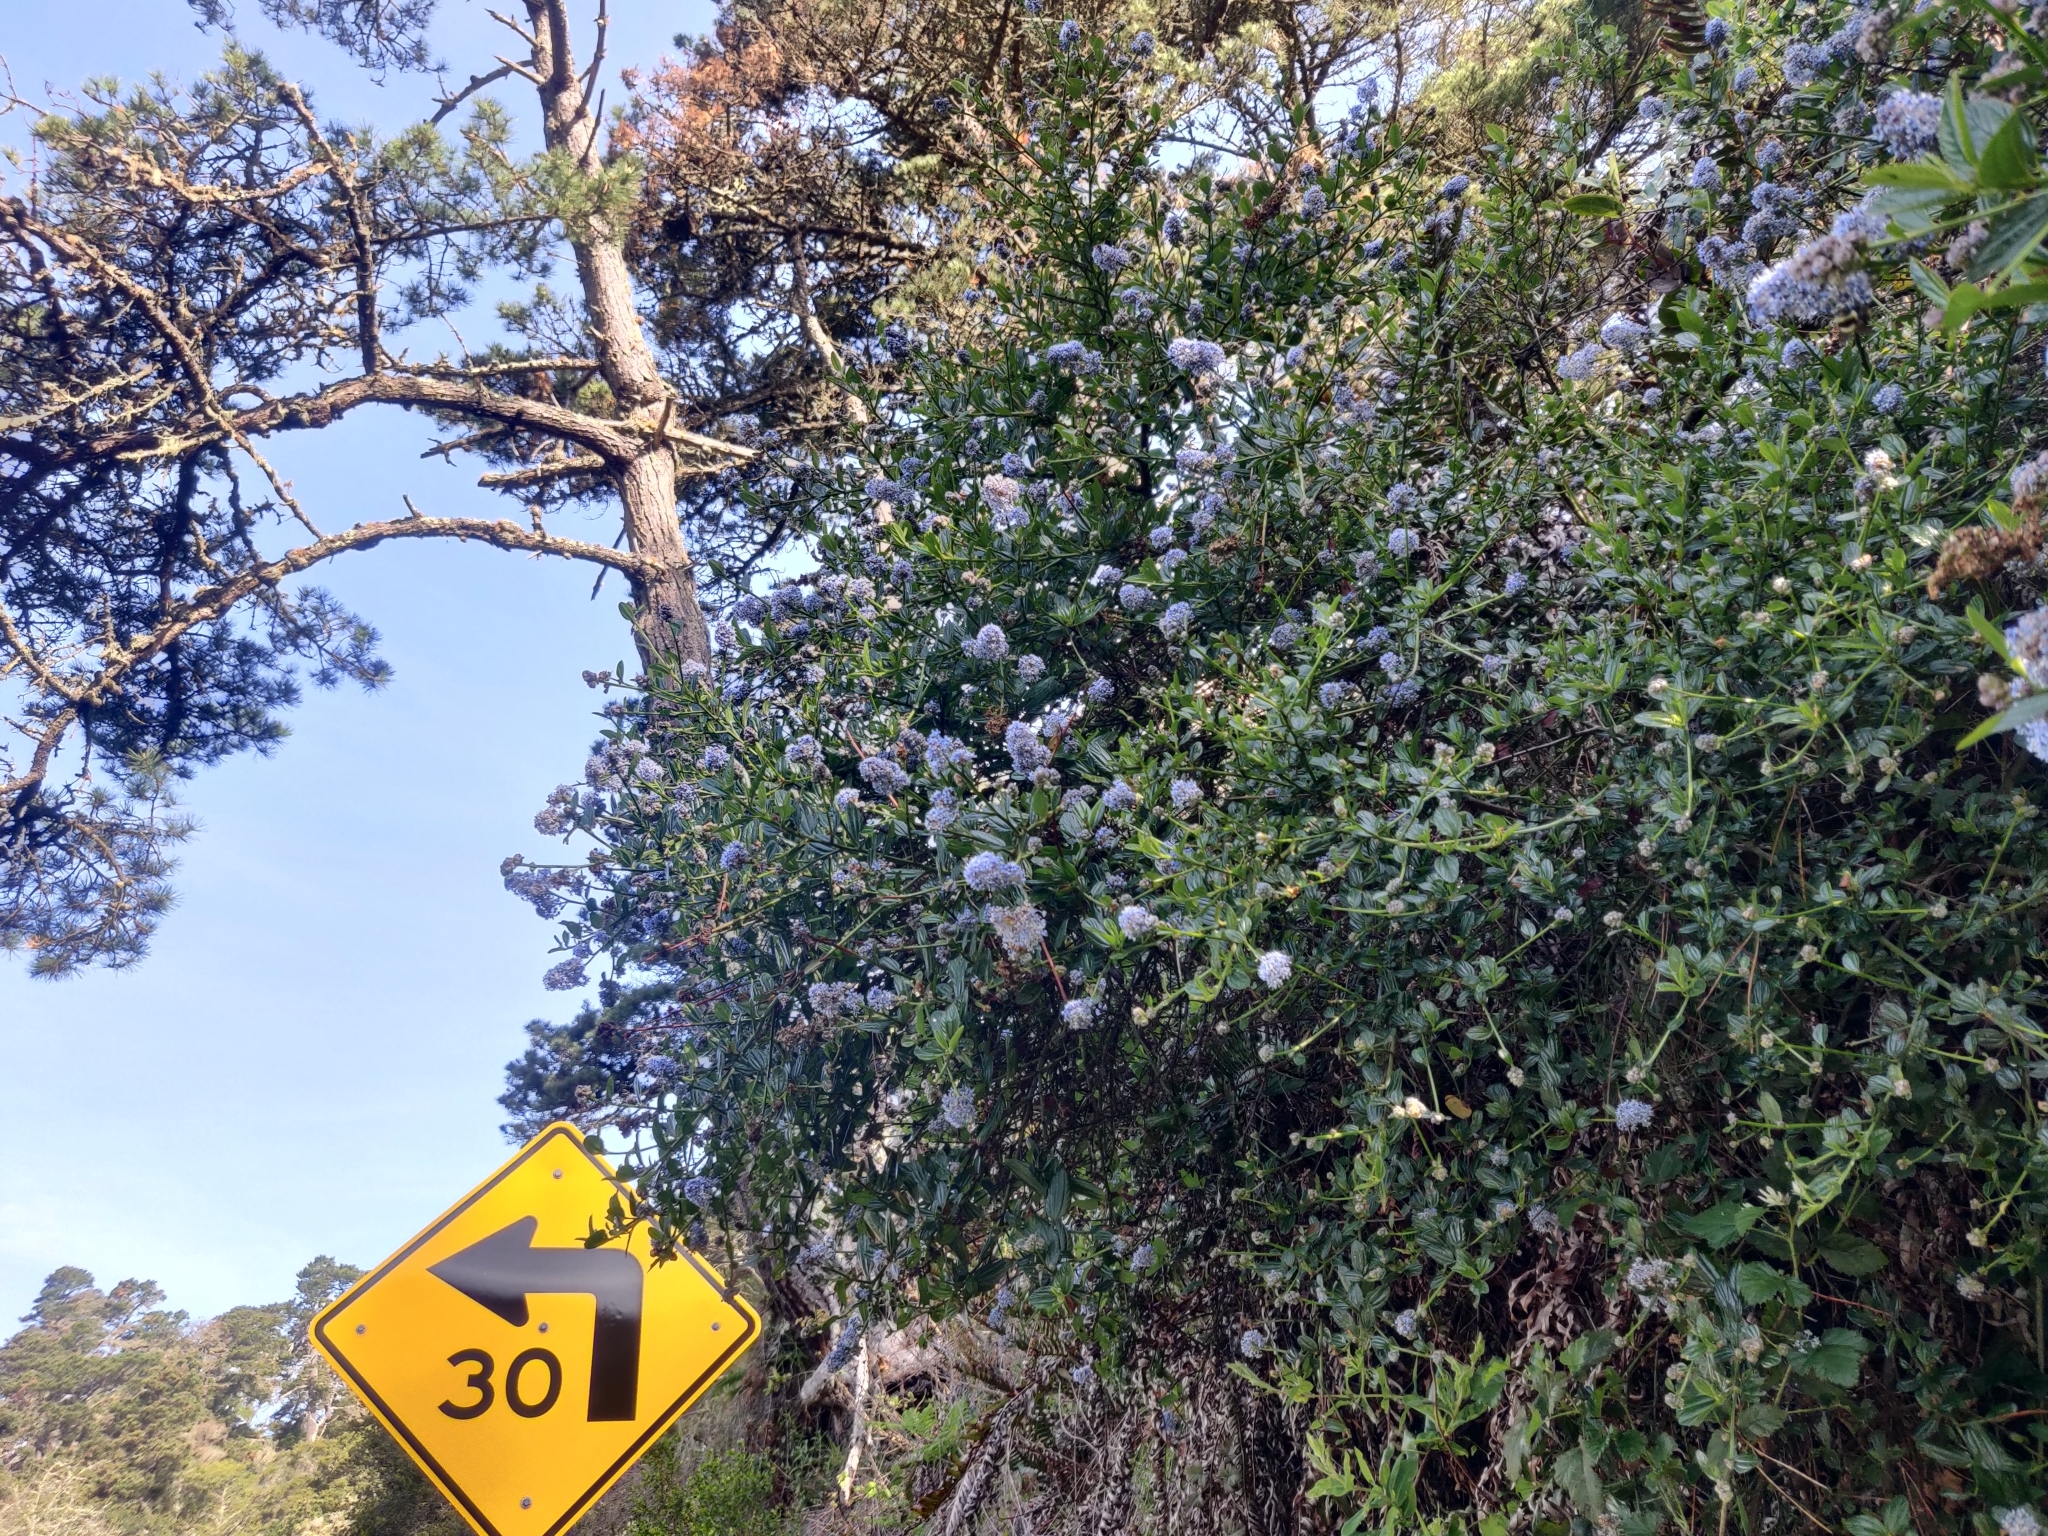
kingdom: Plantae
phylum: Tracheophyta
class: Magnoliopsida
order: Rosales
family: Rhamnaceae
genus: Ceanothus
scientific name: Ceanothus thyrsiflorus
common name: California-lilac
